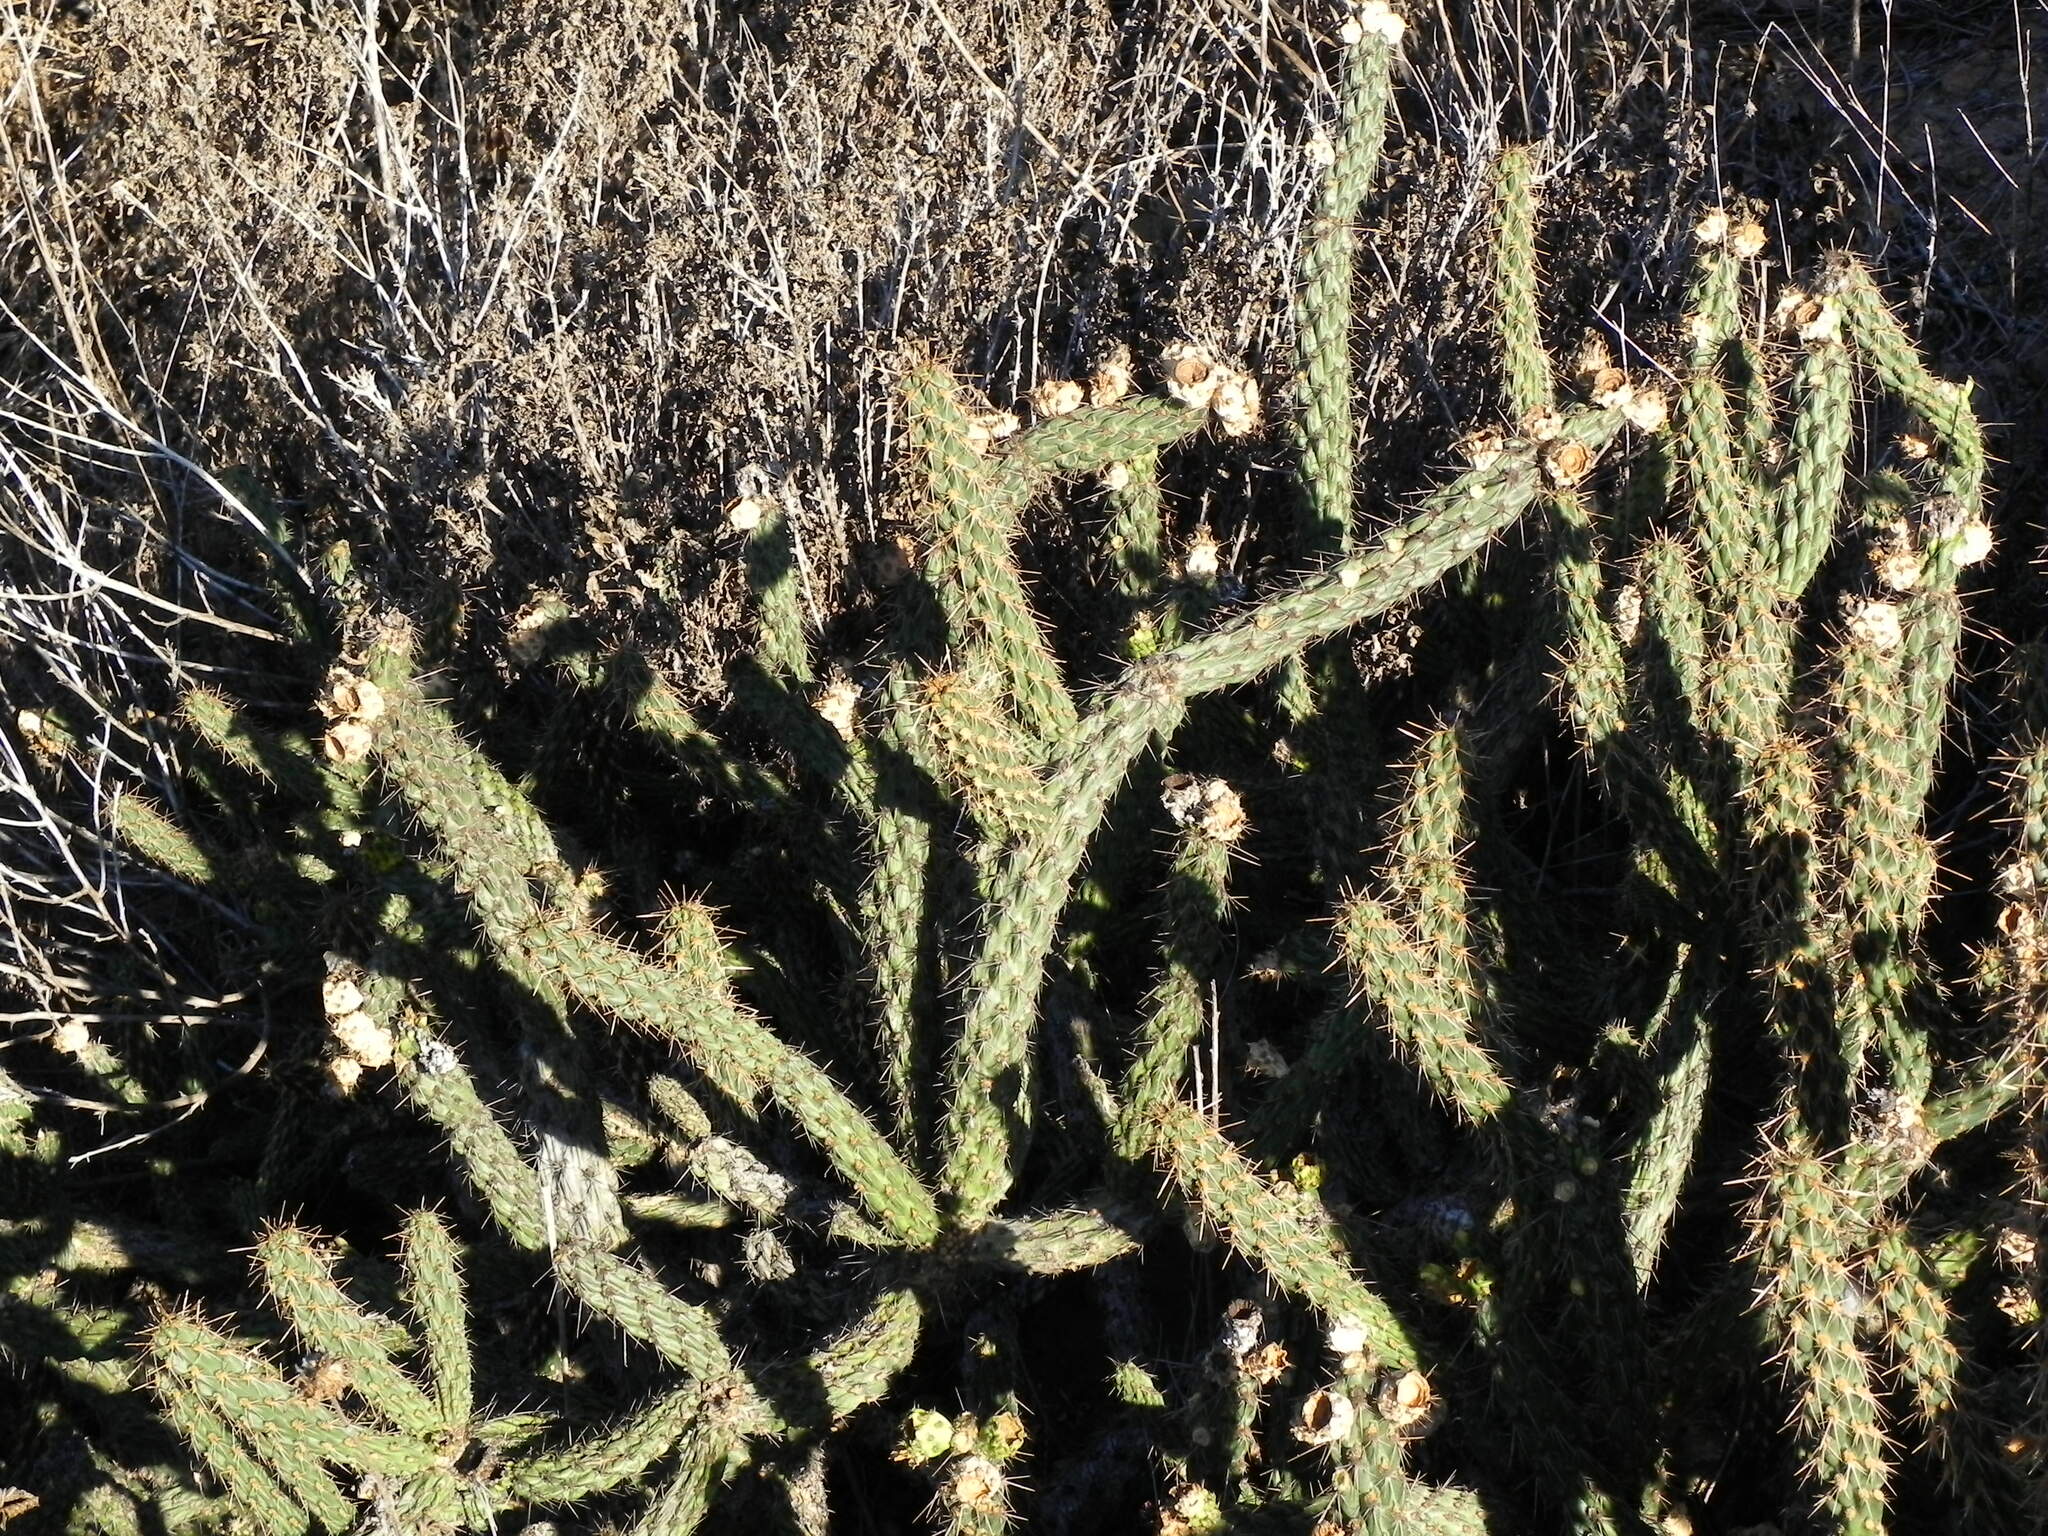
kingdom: Plantae
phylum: Tracheophyta
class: Magnoliopsida
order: Caryophyllales
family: Cactaceae
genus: Cylindropuntia
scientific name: Cylindropuntia californica
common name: Snake cholla
